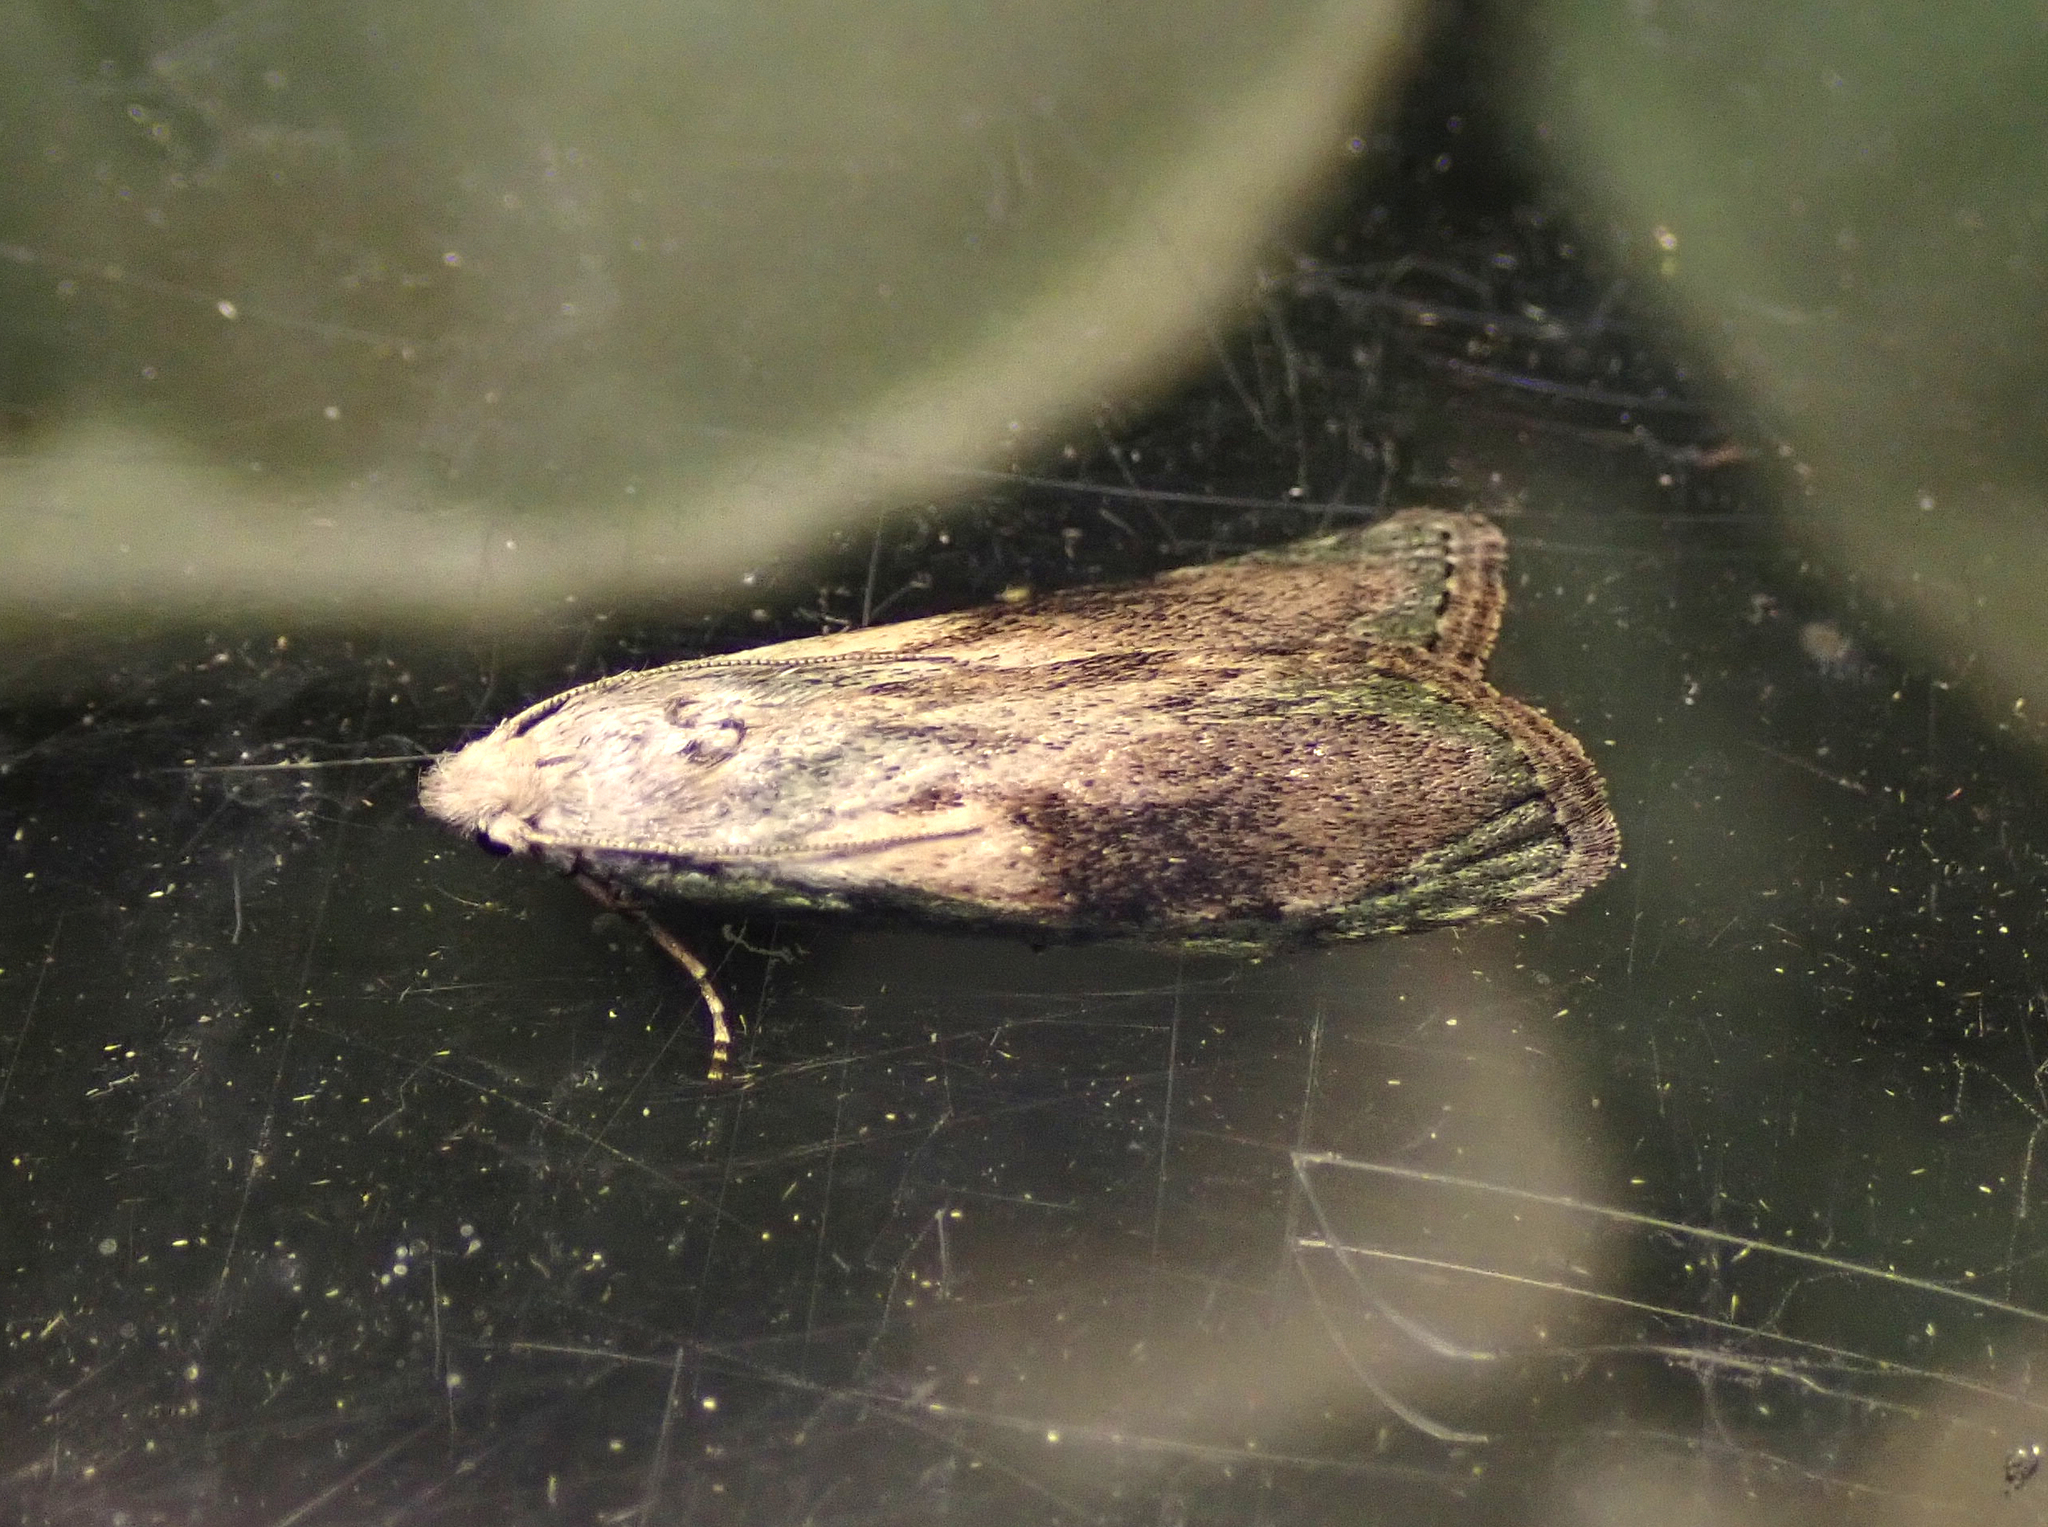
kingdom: Animalia
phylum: Arthropoda
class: Insecta
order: Lepidoptera
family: Pyralidae
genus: Aphomia
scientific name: Aphomia sociella
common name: Bee moth
